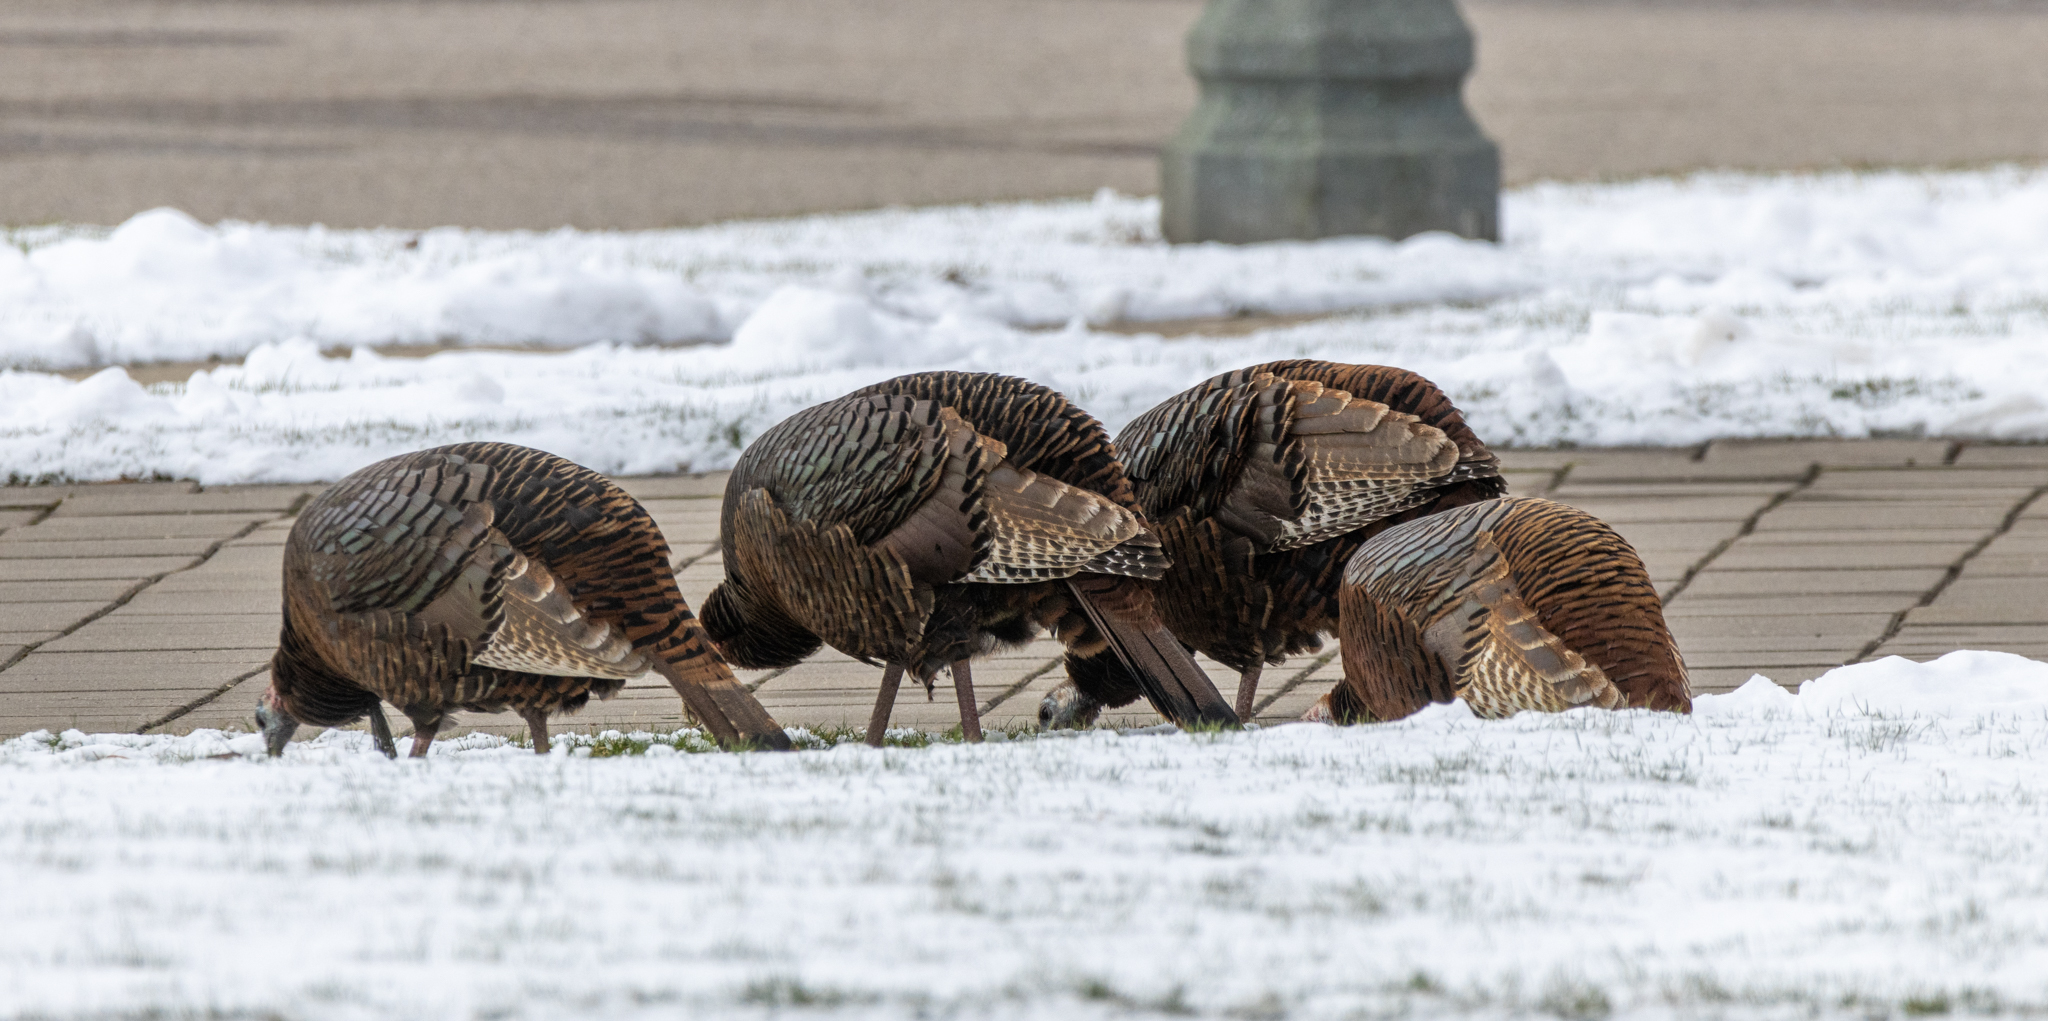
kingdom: Animalia
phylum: Chordata
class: Aves
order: Galliformes
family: Phasianidae
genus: Meleagris
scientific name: Meleagris gallopavo
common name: Wild turkey
